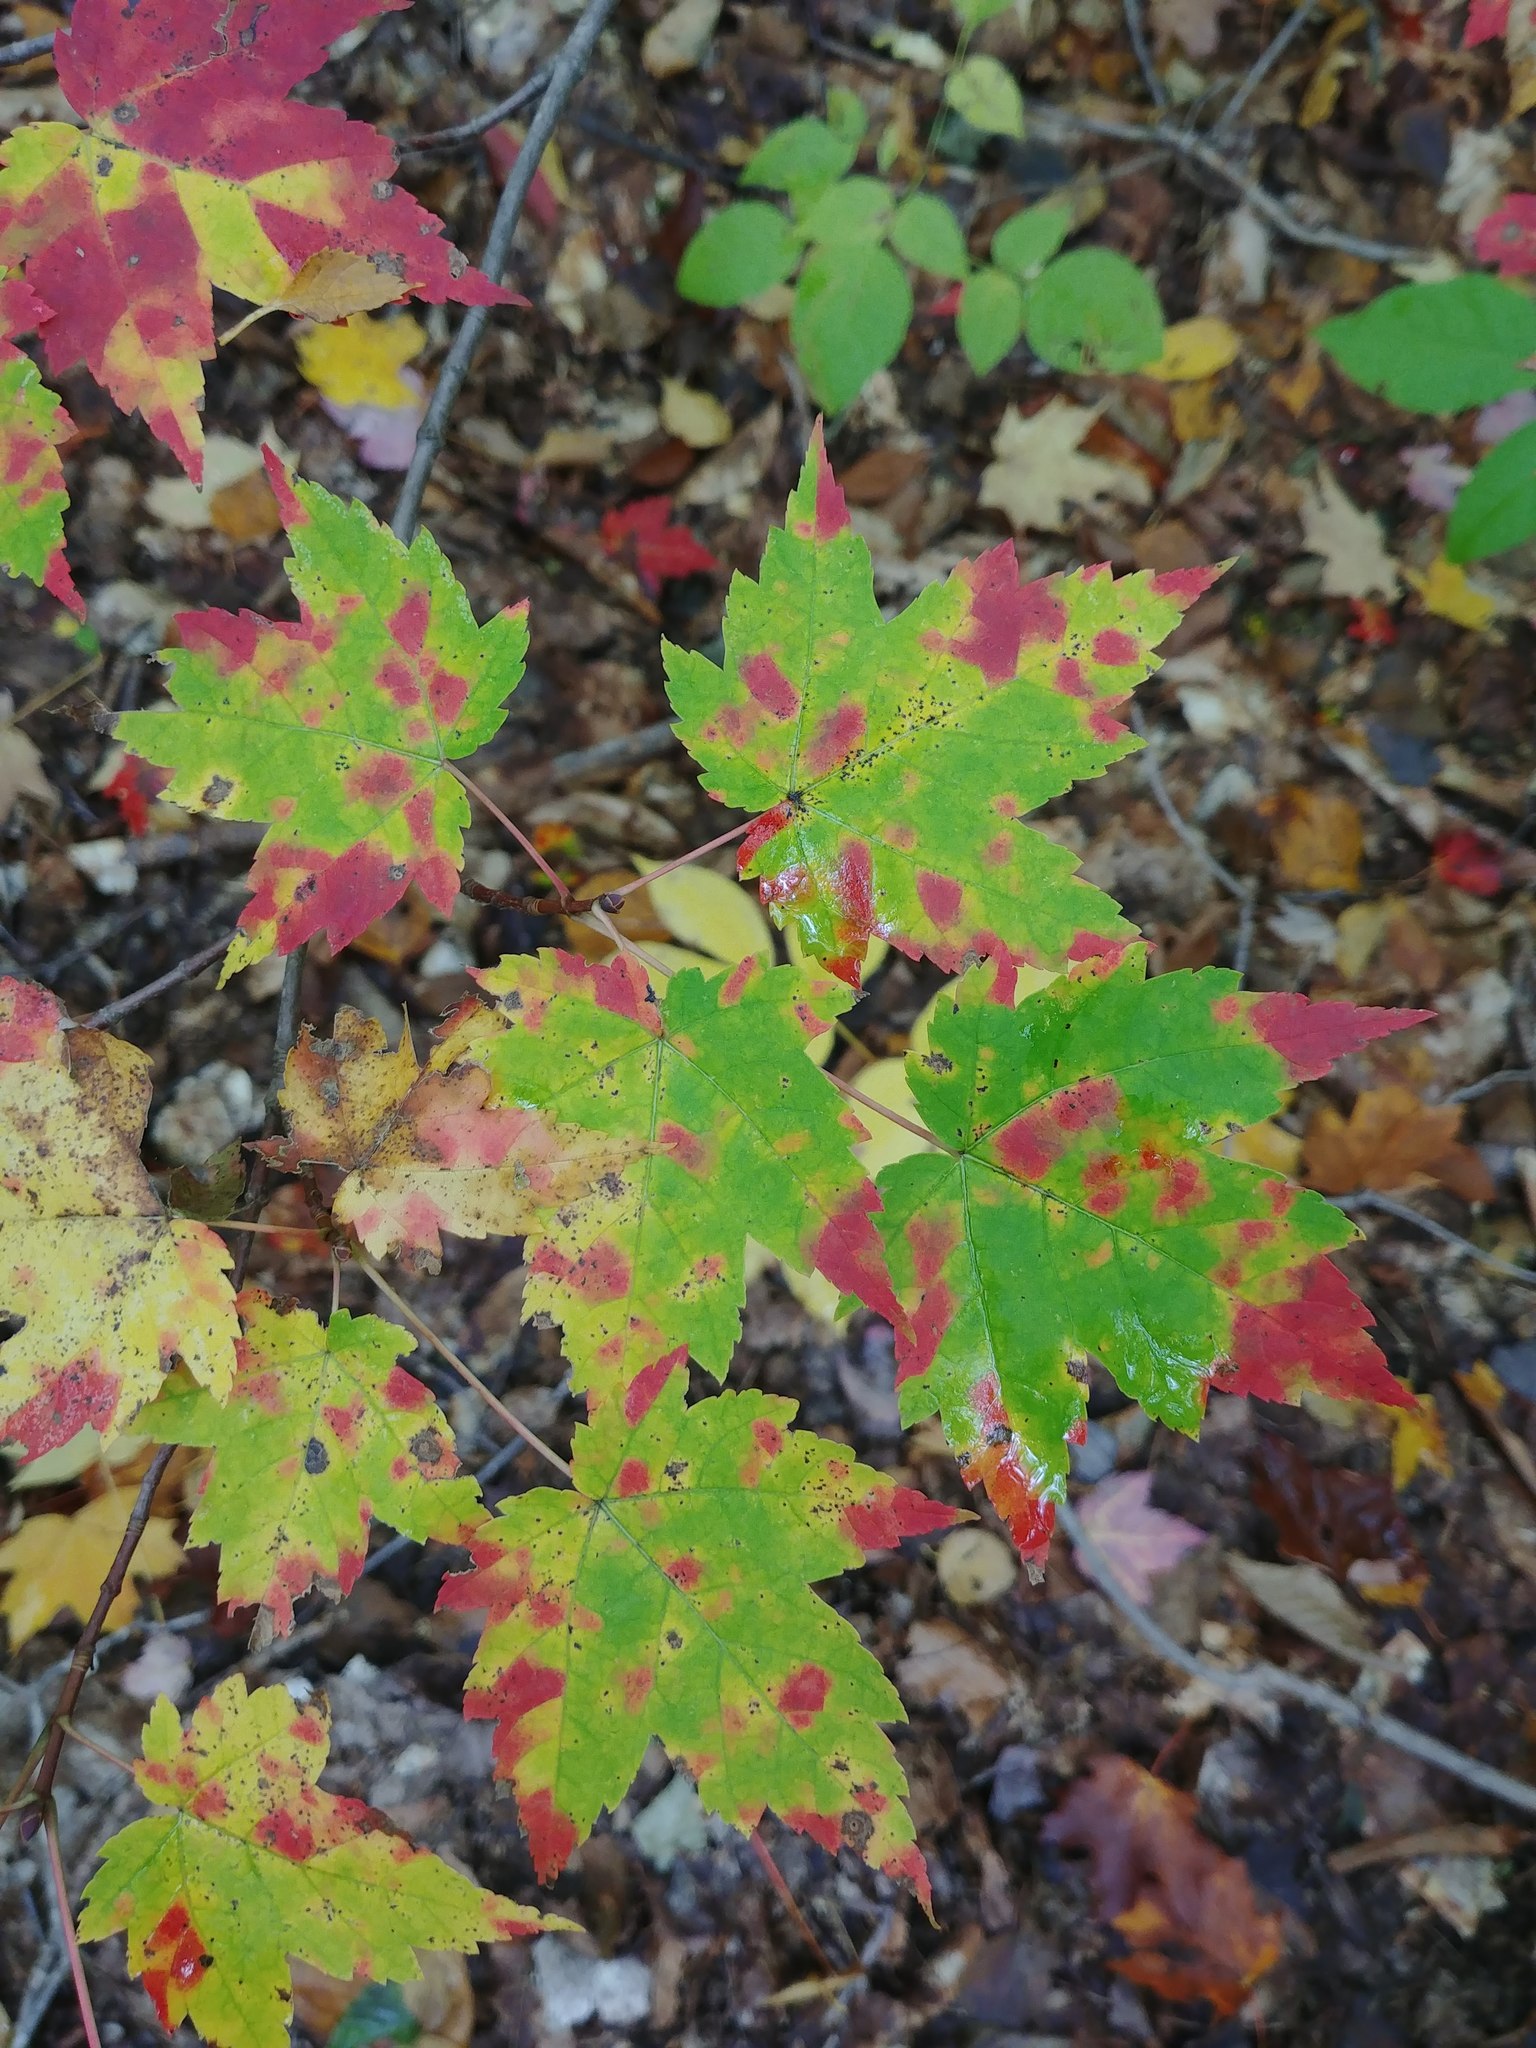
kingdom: Plantae
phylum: Tracheophyta
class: Magnoliopsida
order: Sapindales
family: Sapindaceae
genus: Acer
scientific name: Acer rubrum
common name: Red maple
